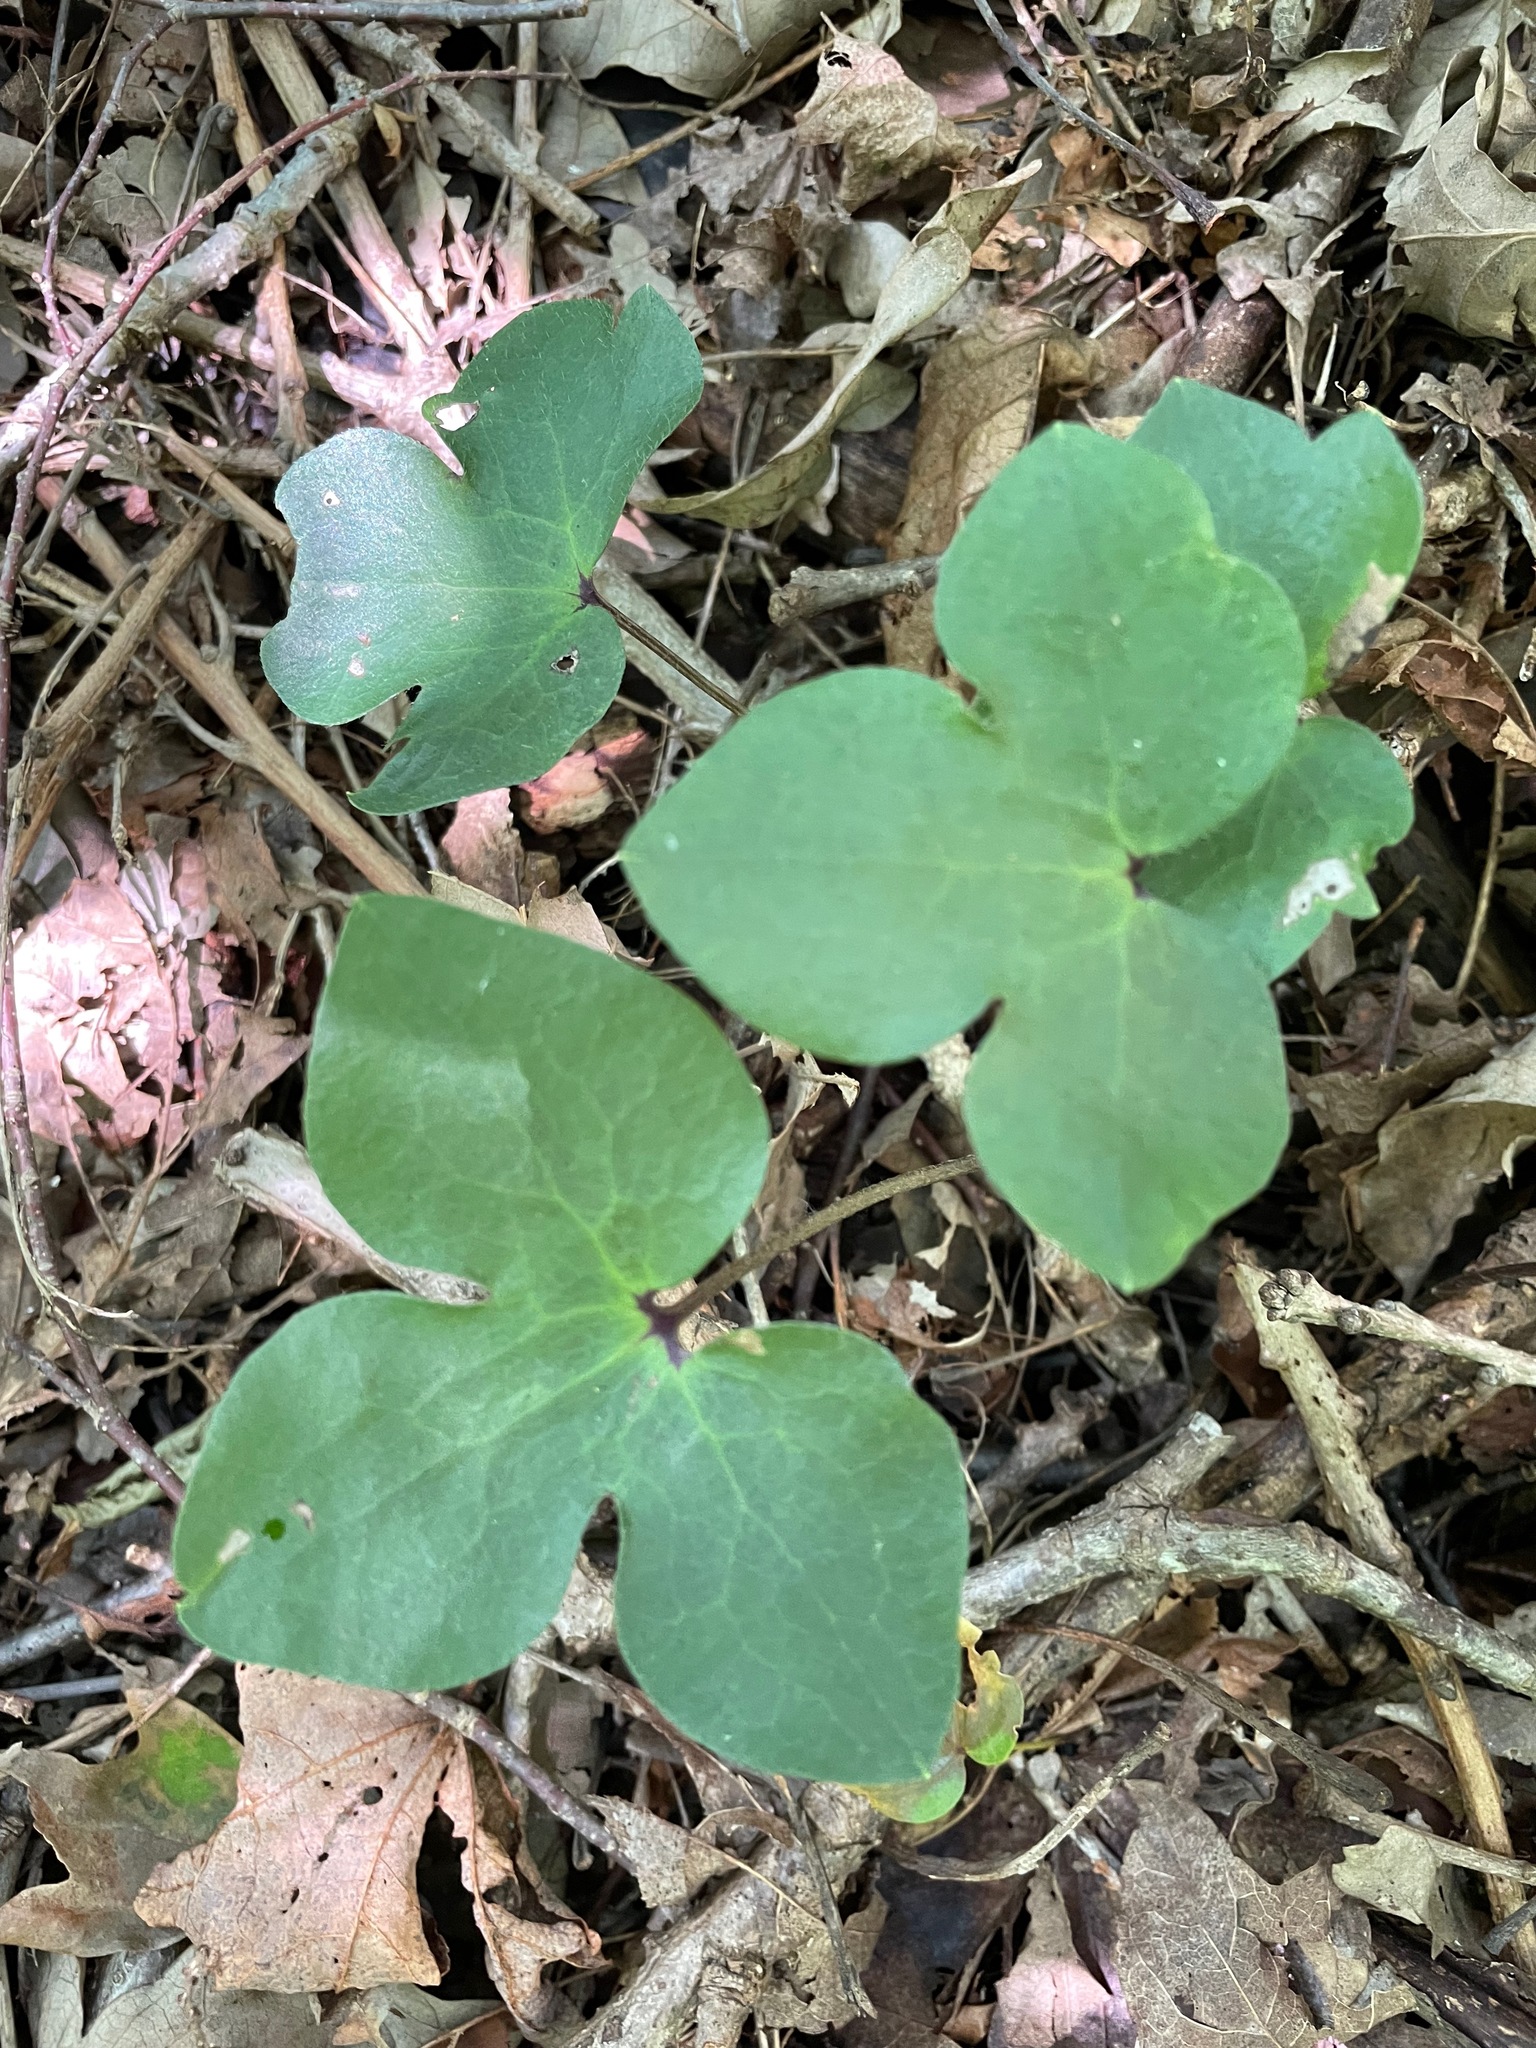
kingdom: Plantae
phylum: Tracheophyta
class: Magnoliopsida
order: Ranunculales
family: Ranunculaceae
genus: Hepatica
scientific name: Hepatica acutiloba
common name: Sharp-lobed hepatica
